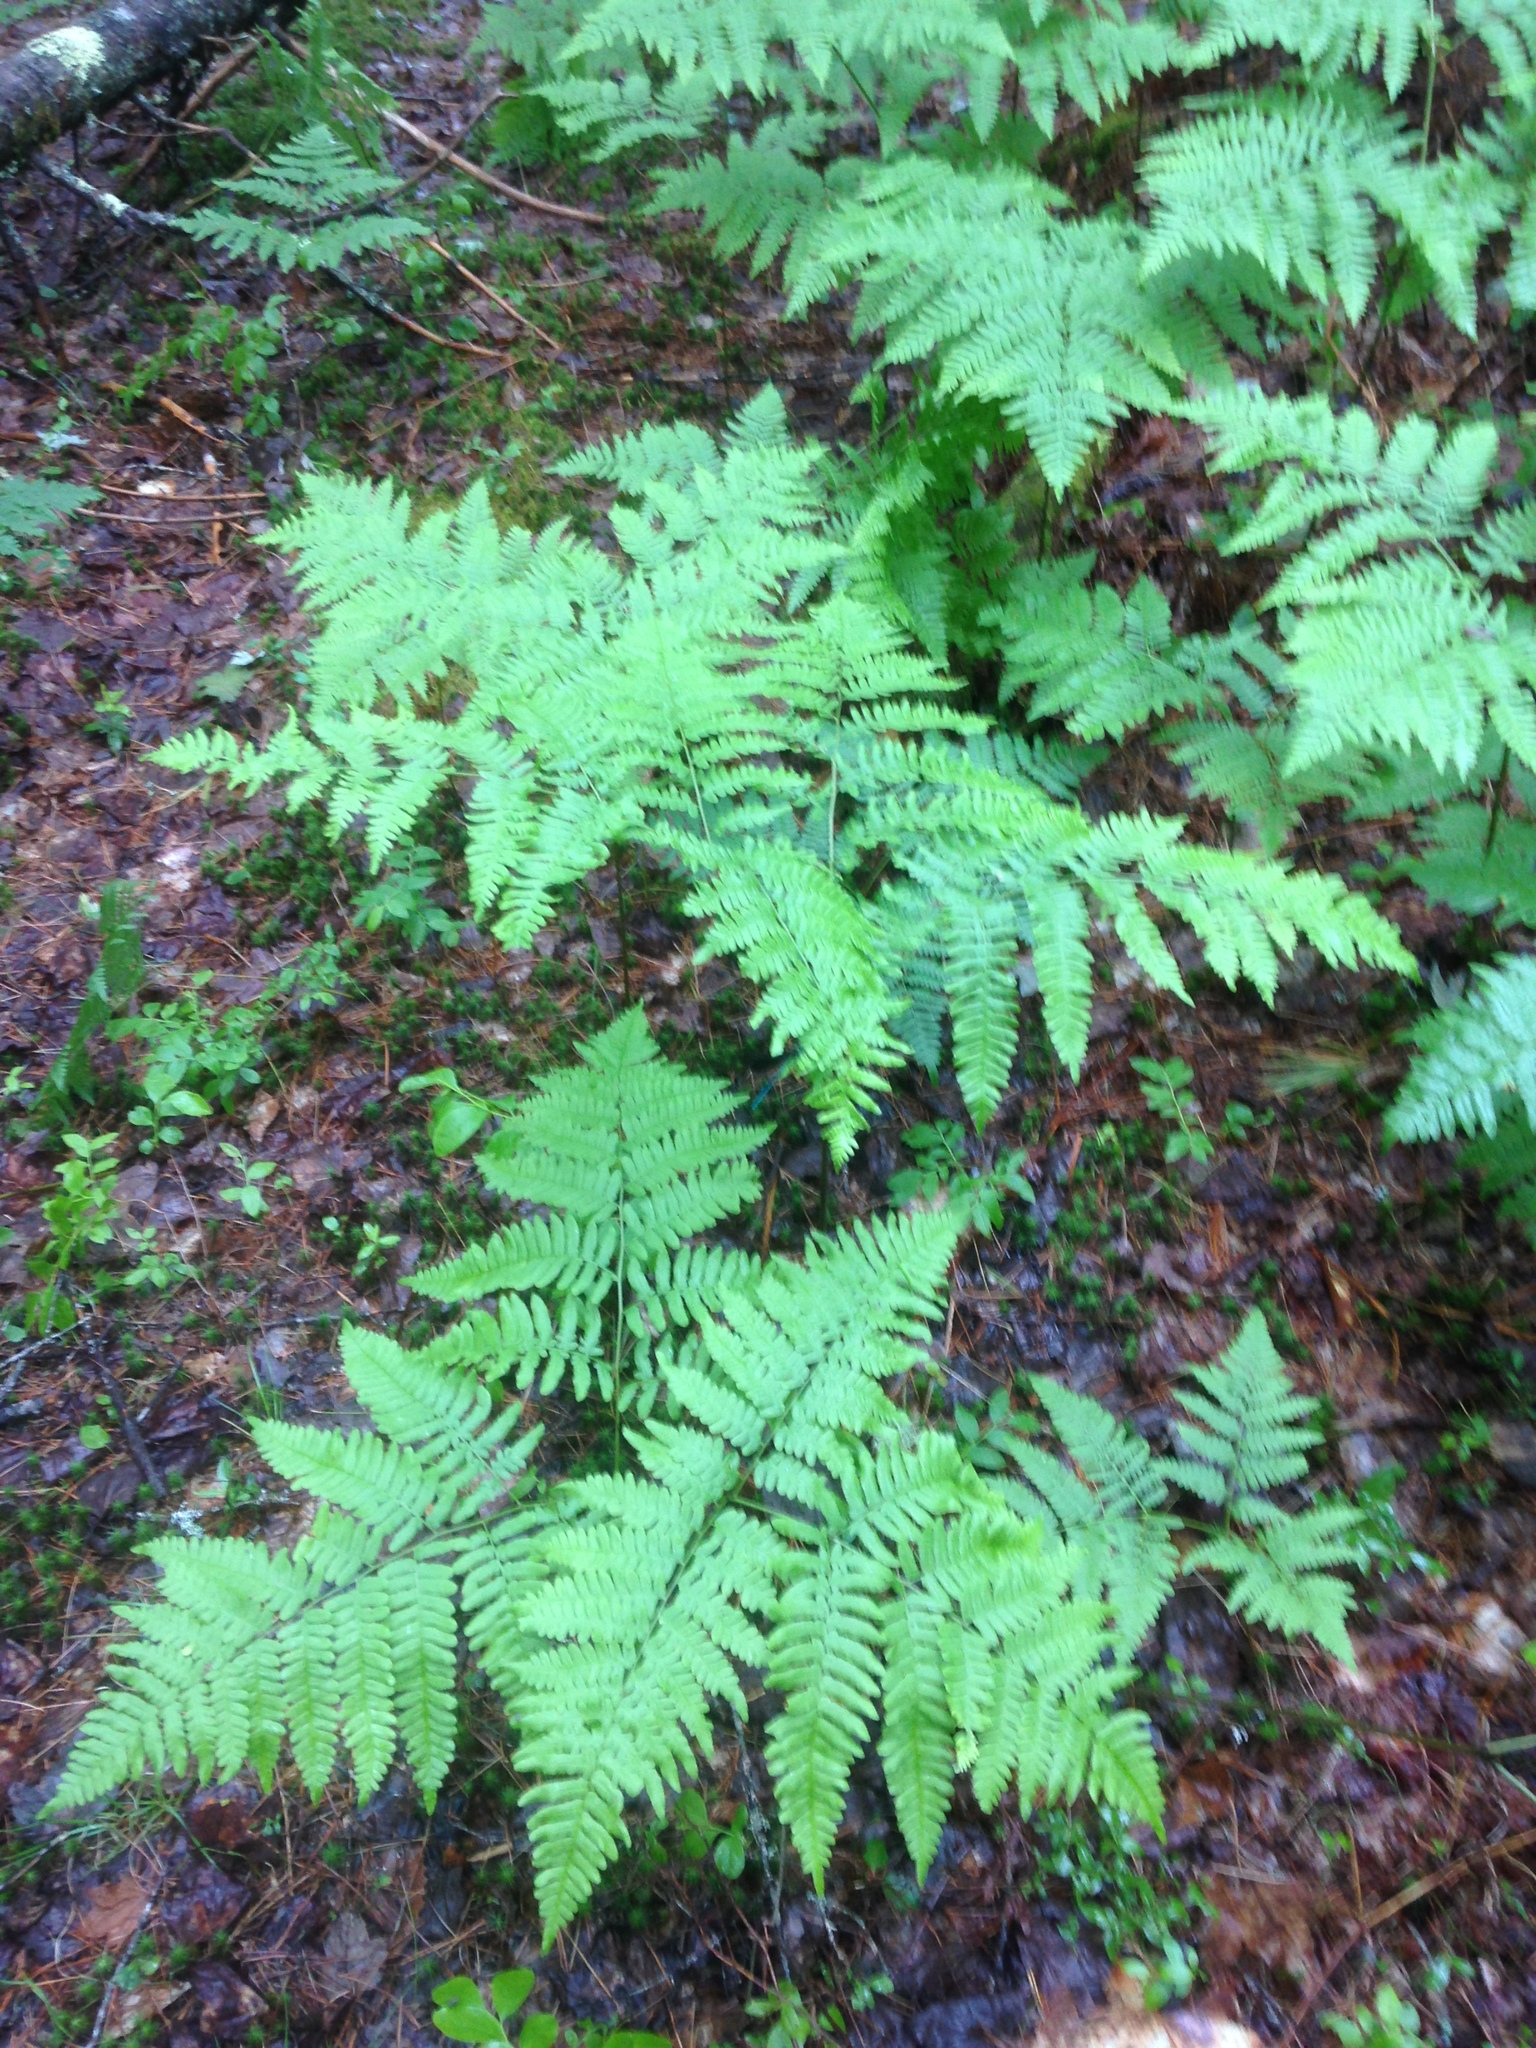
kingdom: Plantae
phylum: Tracheophyta
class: Polypodiopsida
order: Polypodiales
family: Dennstaedtiaceae
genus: Pteridium
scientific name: Pteridium aquilinum
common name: Bracken
